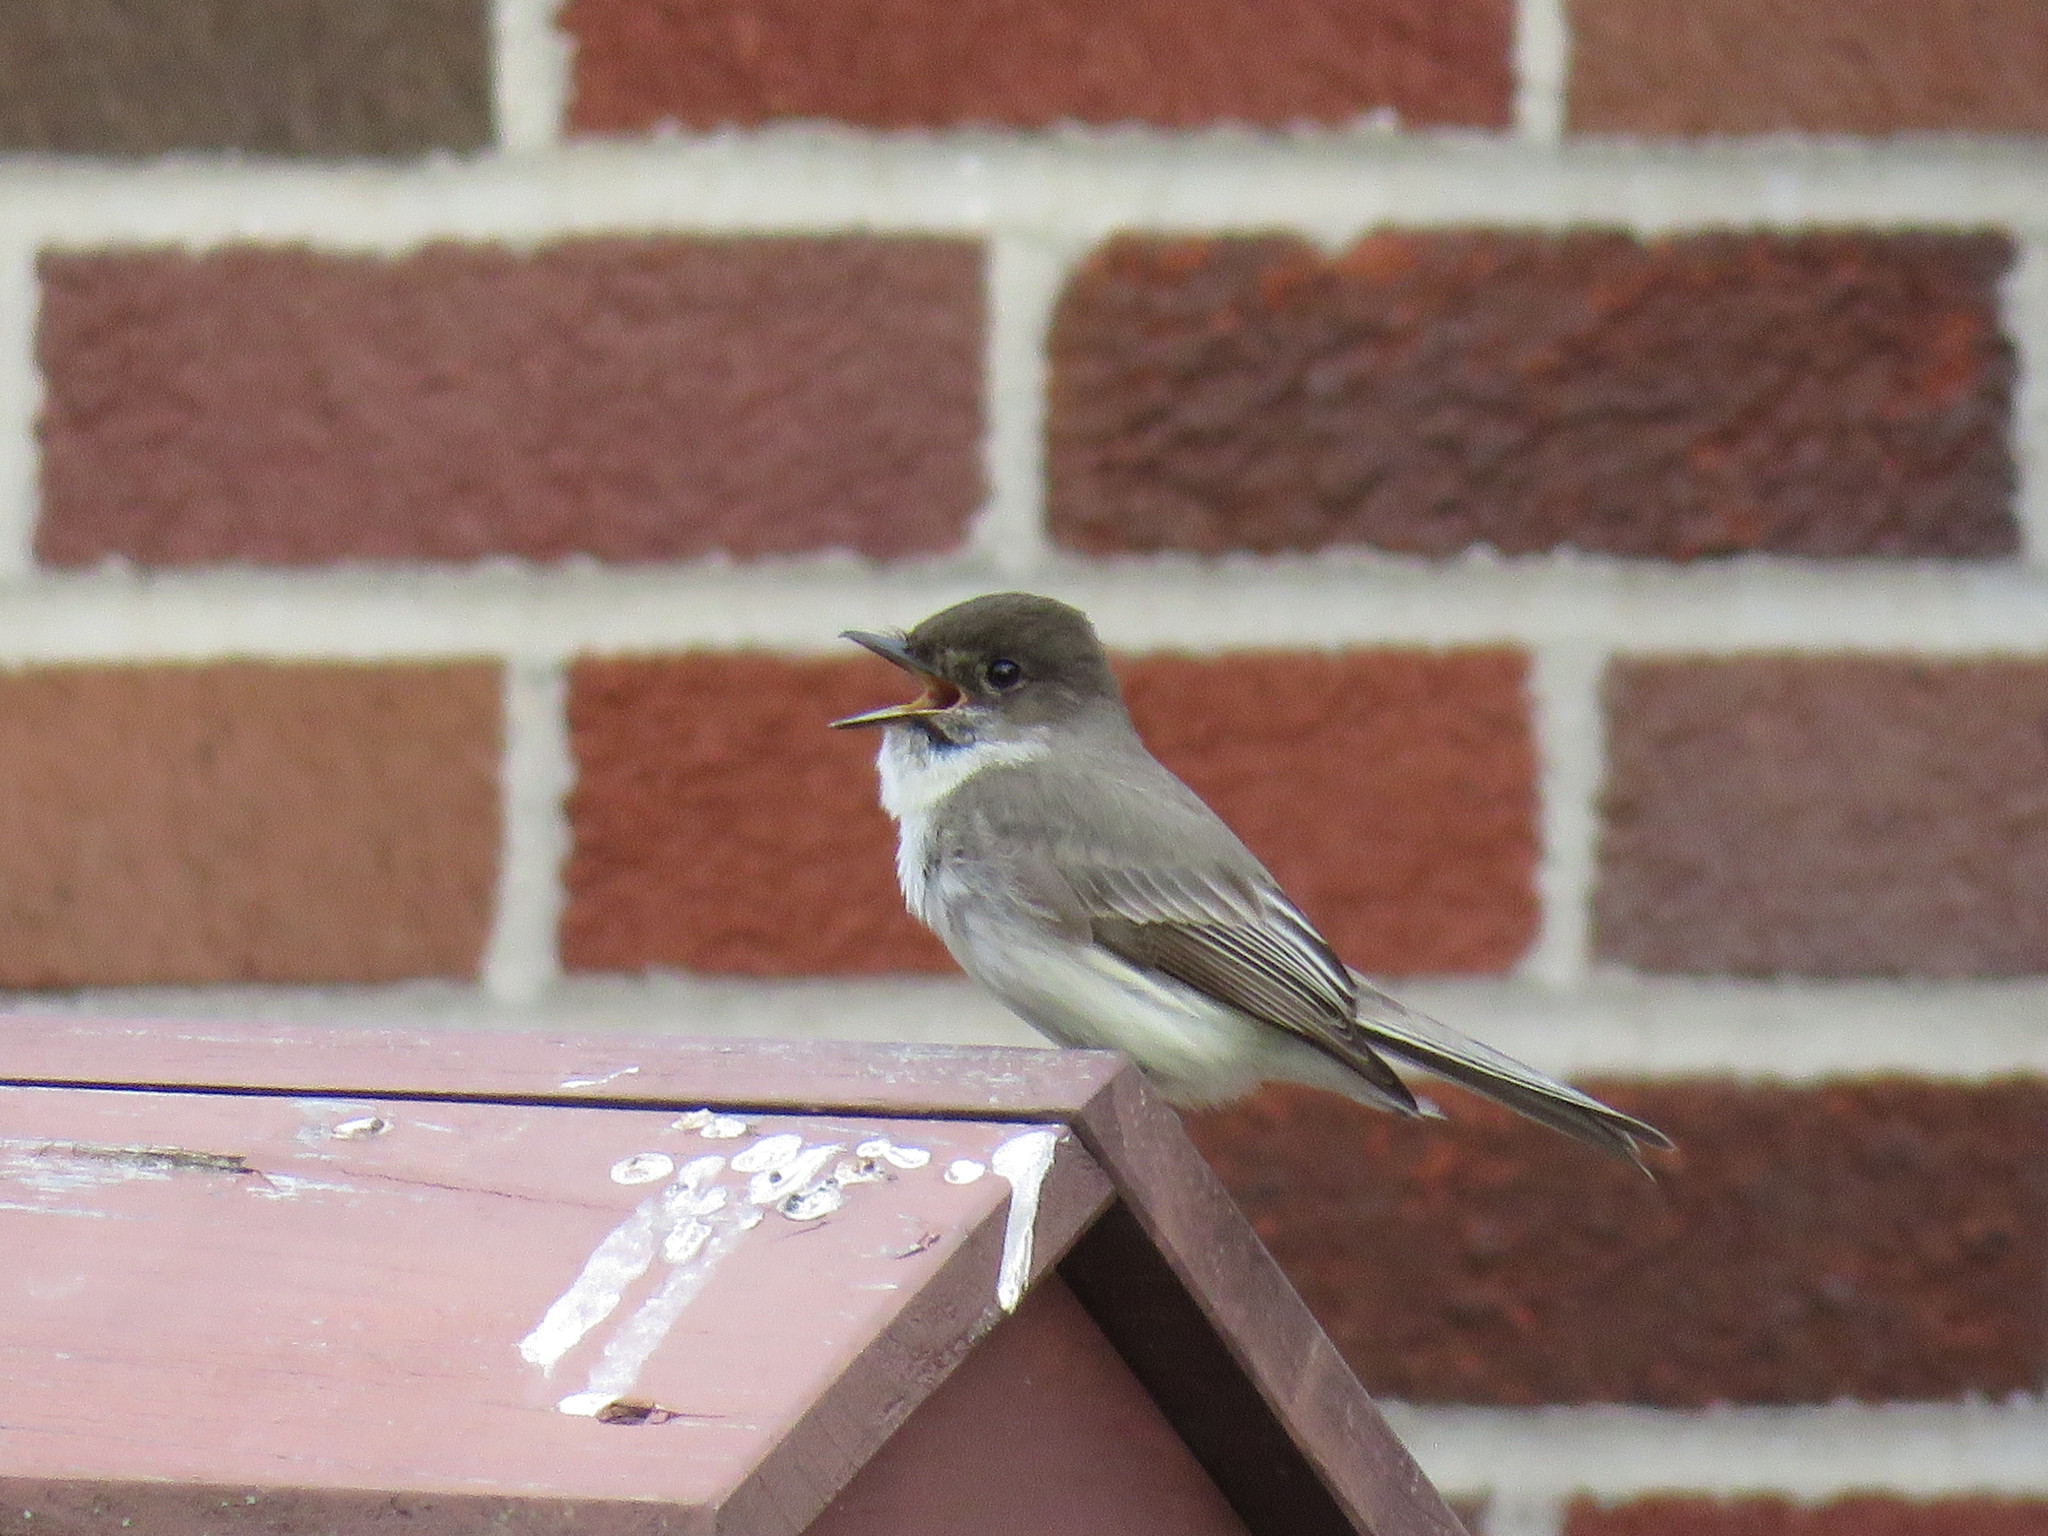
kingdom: Animalia
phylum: Chordata
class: Aves
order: Passeriformes
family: Tyrannidae
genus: Sayornis
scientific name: Sayornis phoebe
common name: Eastern phoebe
